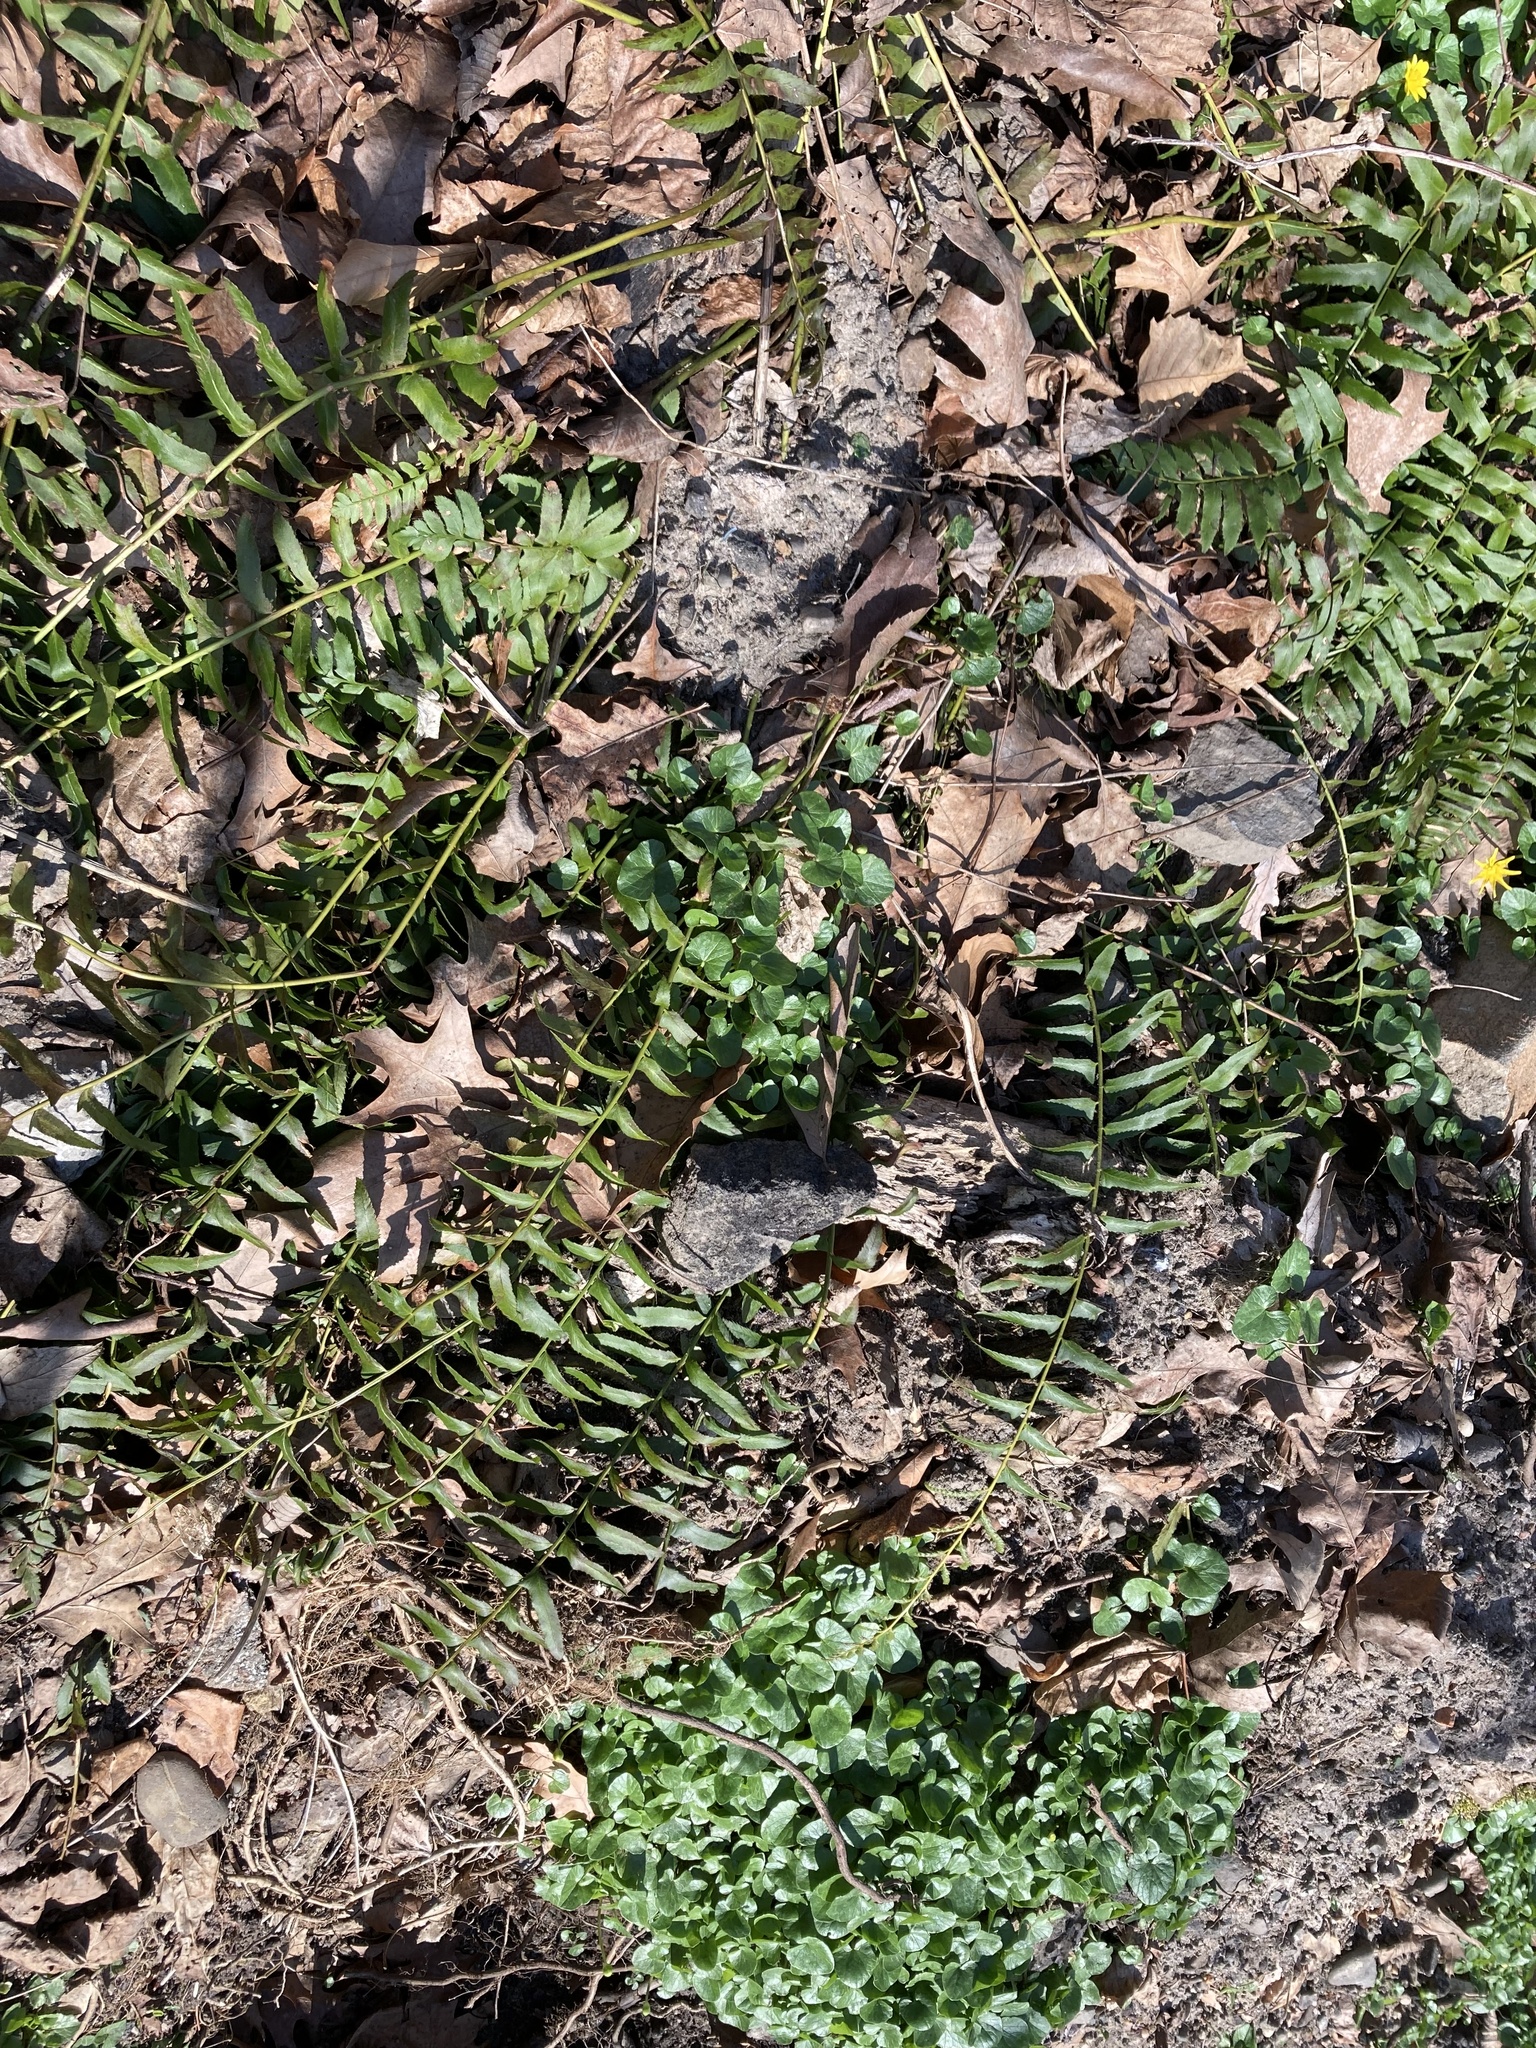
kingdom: Plantae
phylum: Tracheophyta
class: Polypodiopsida
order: Polypodiales
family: Dryopteridaceae
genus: Polystichum
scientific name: Polystichum acrostichoides
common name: Christmas fern
